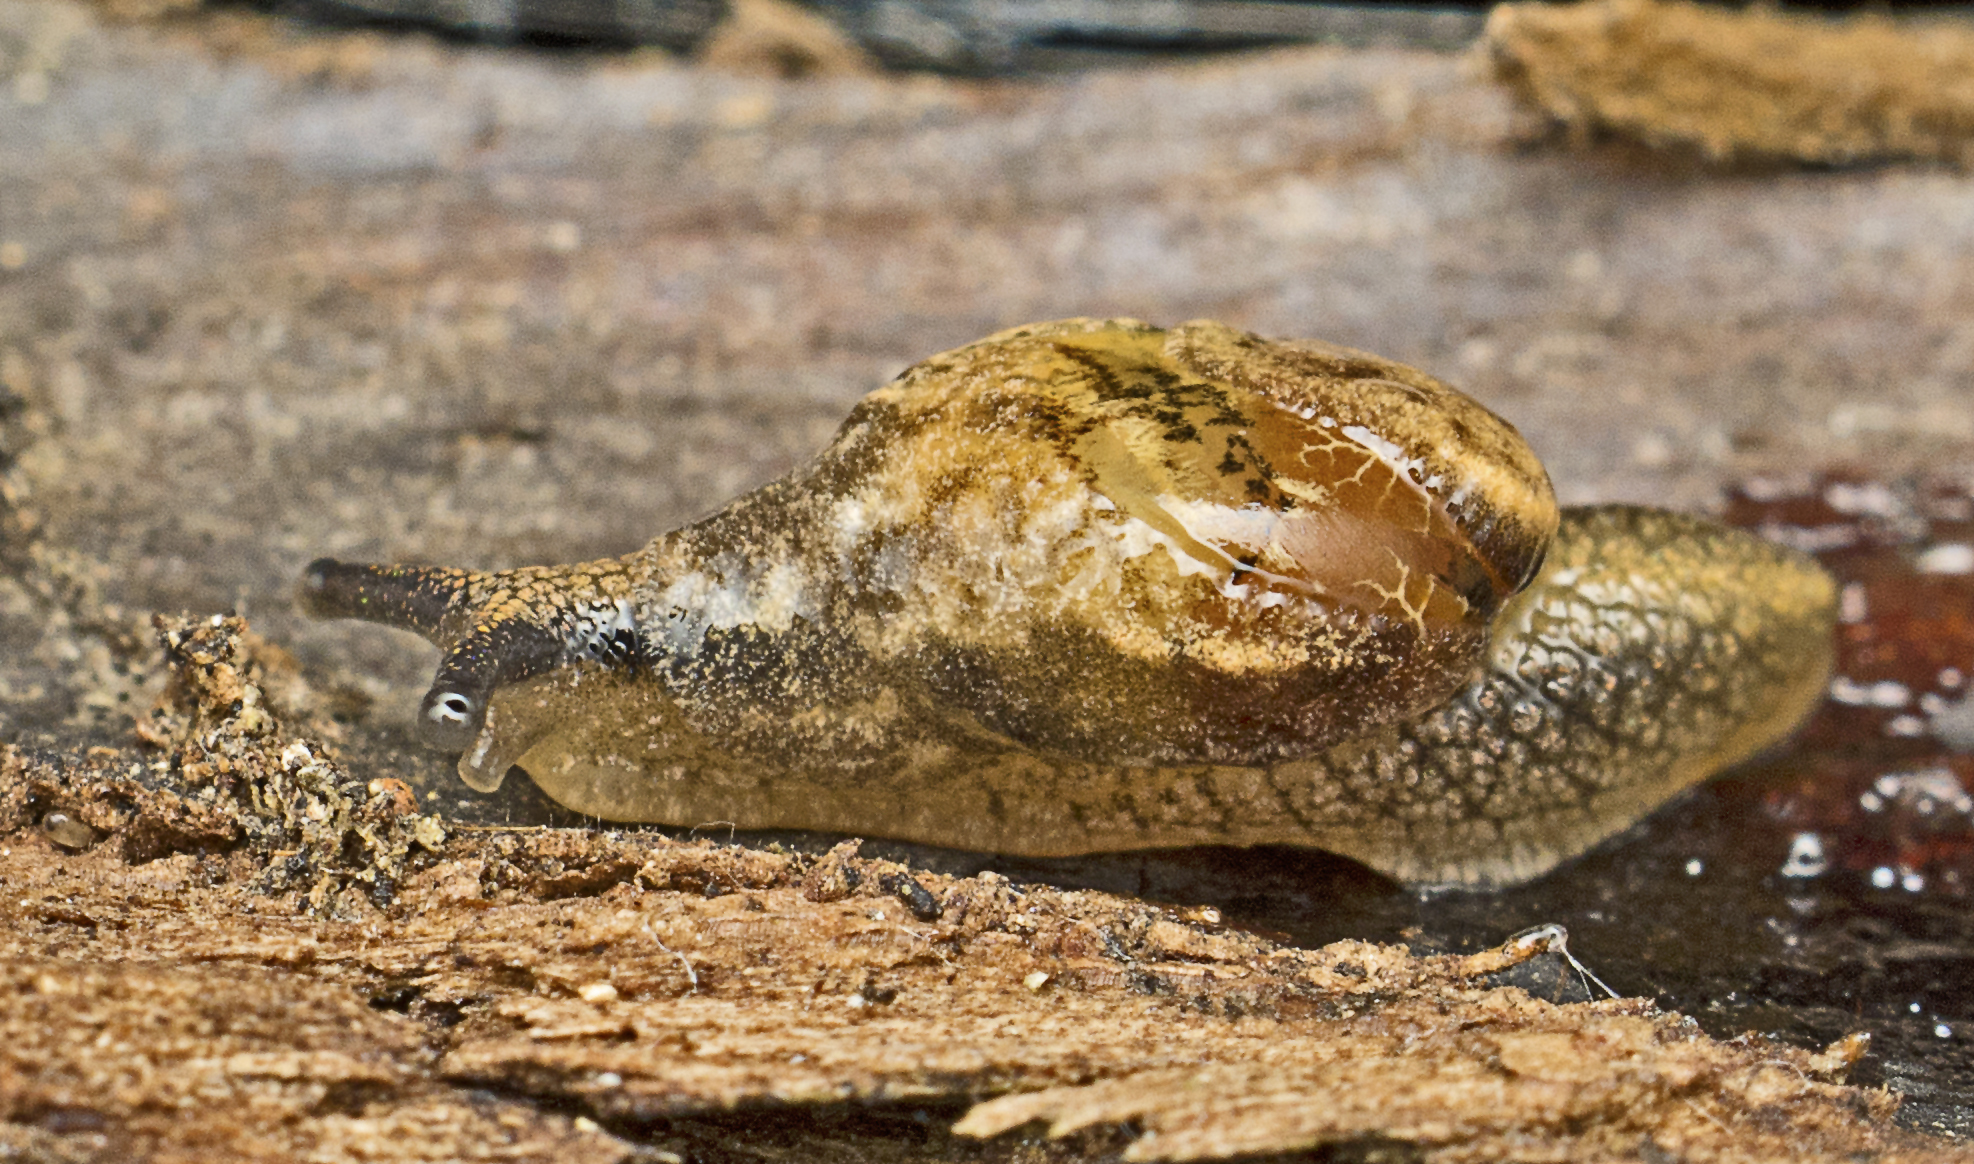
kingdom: Animalia
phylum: Mollusca
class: Gastropoda
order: Stylommatophora
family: Helicarionidae
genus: Ubiquitarion
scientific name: Ubiquitarion iridis
